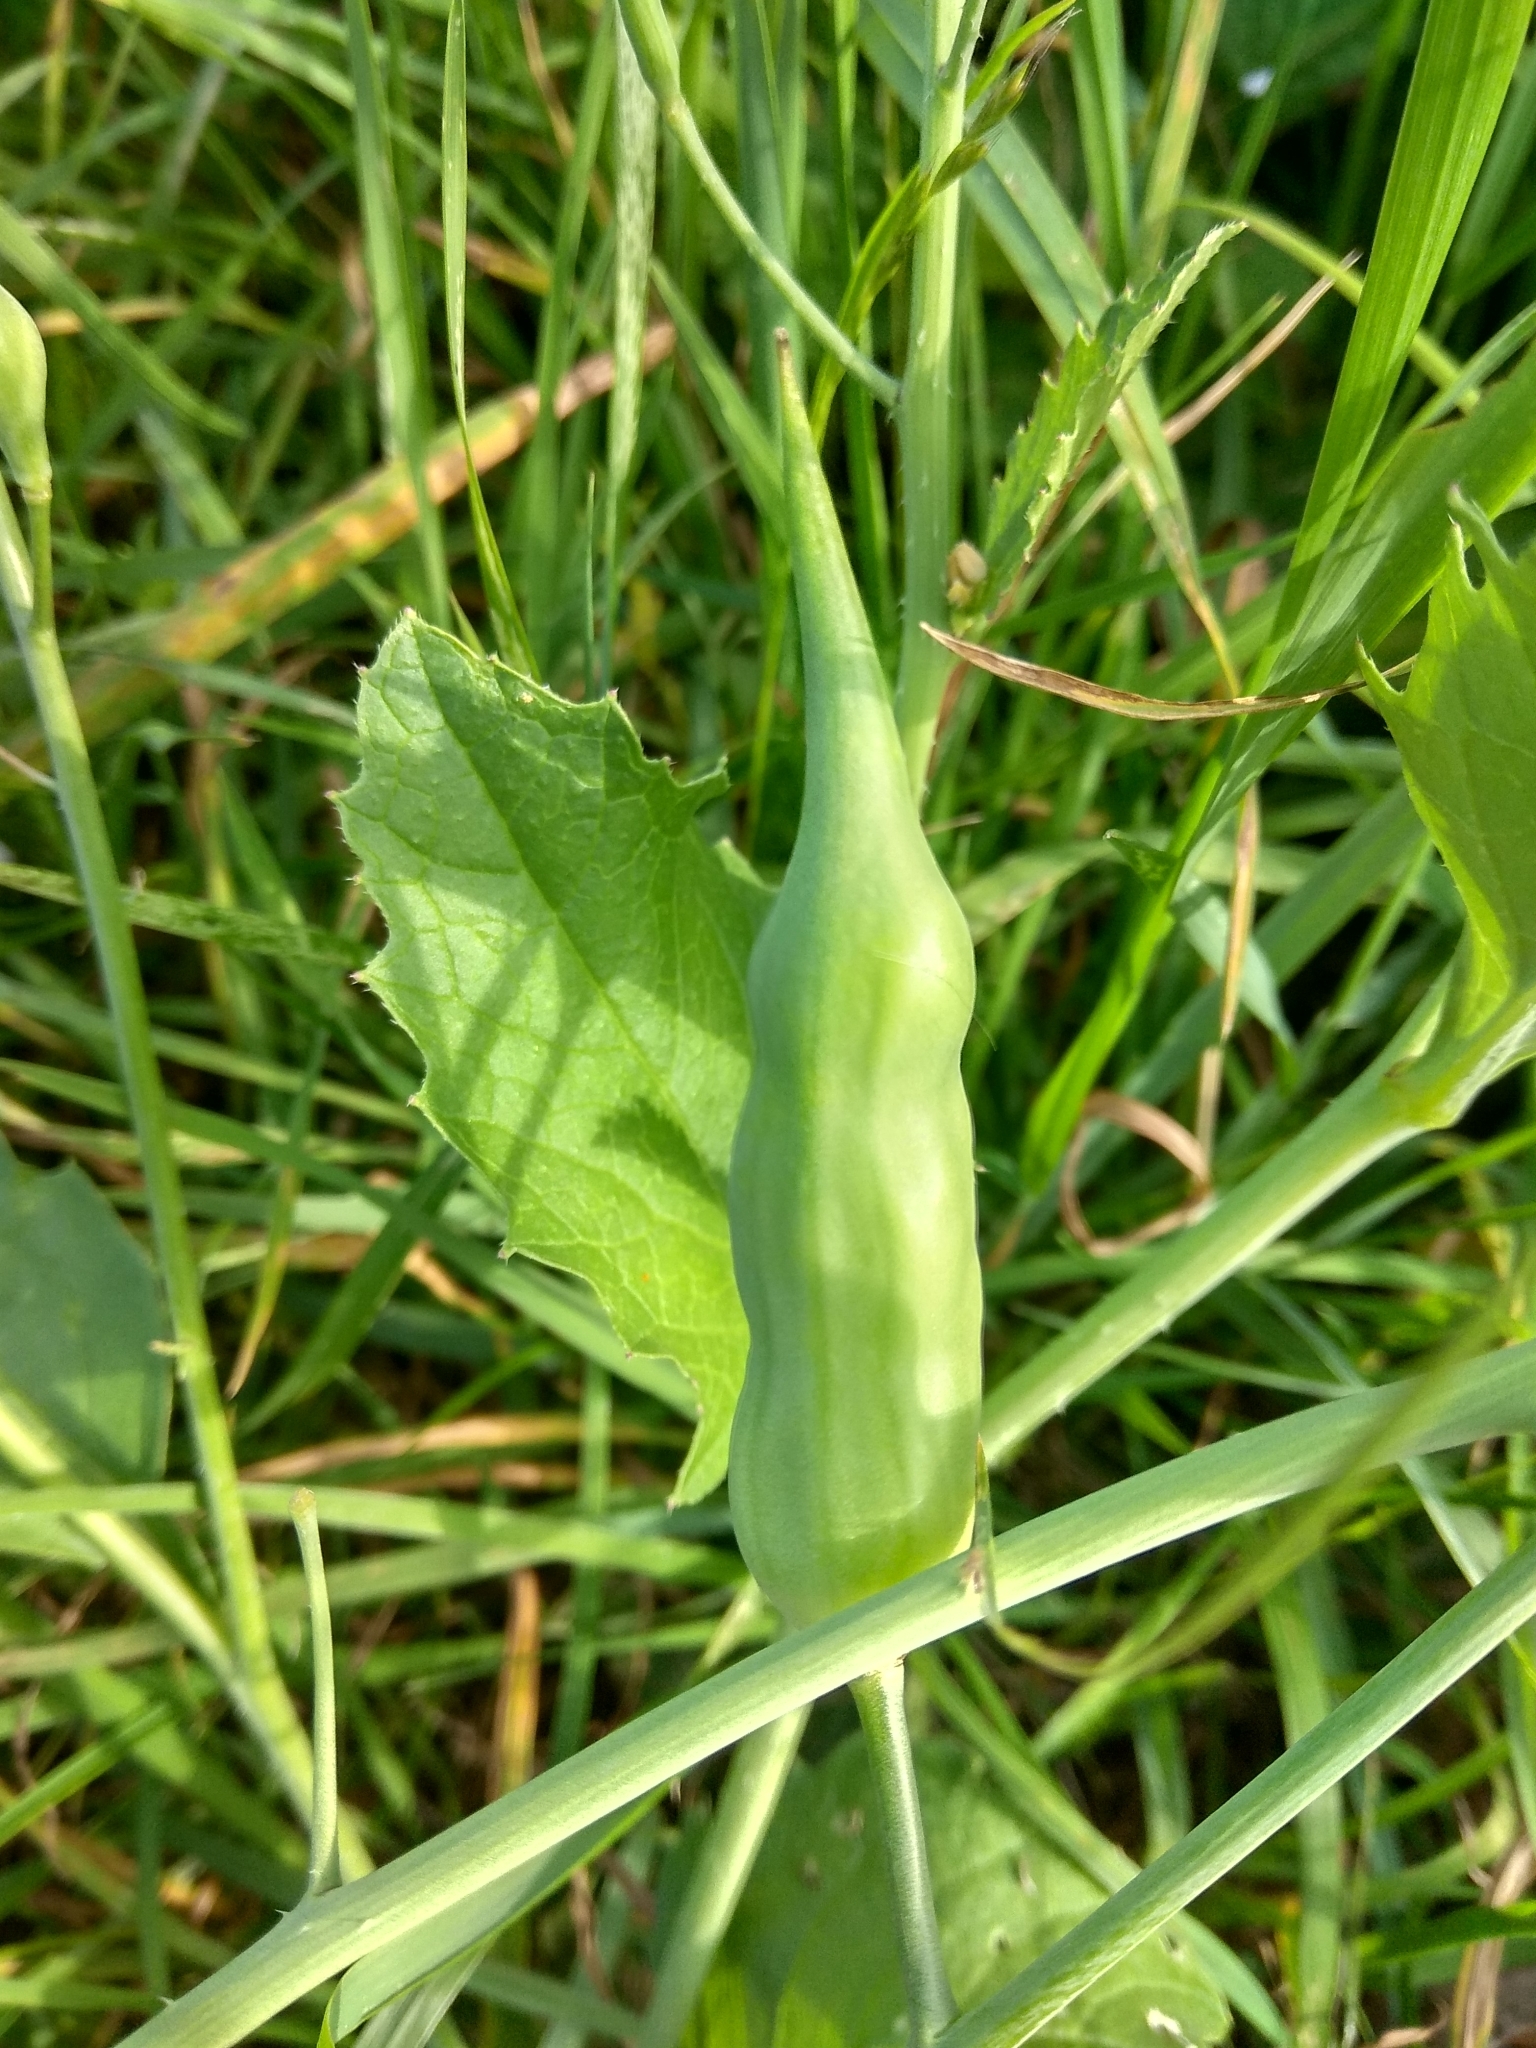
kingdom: Plantae
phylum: Tracheophyta
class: Magnoliopsida
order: Brassicales
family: Brassicaceae
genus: Raphanus
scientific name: Raphanus raphanistrum
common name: Wild radish
